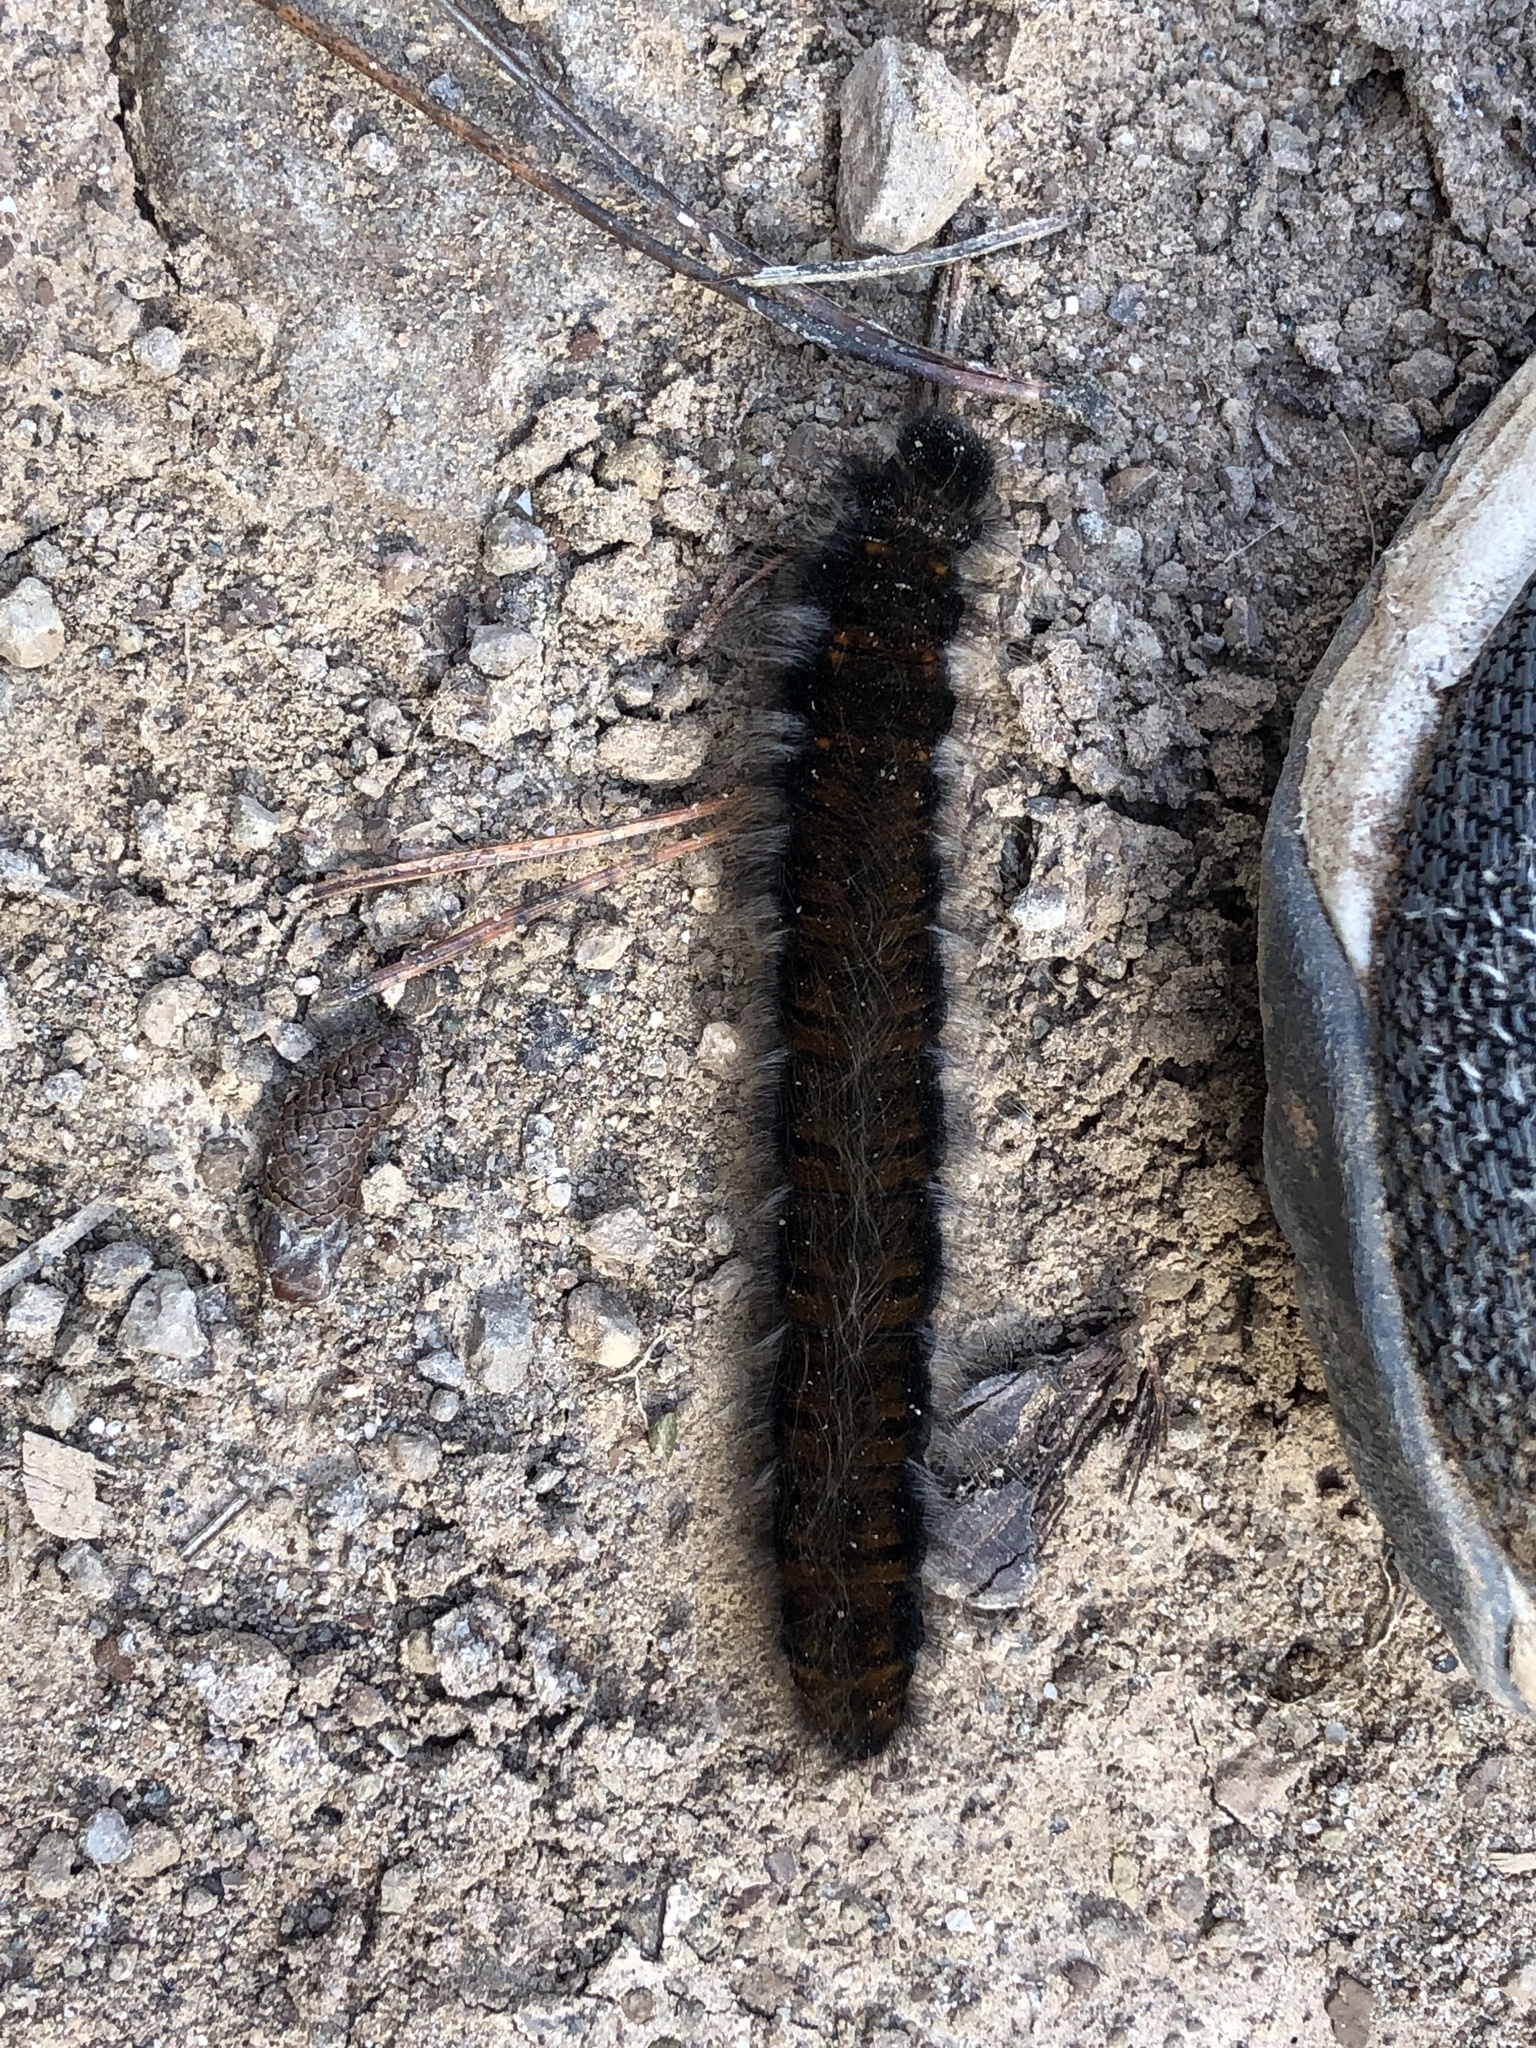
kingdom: Animalia
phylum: Arthropoda
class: Insecta
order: Lepidoptera
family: Lasiocampidae
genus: Macrothylacia
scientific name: Macrothylacia rubi
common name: Fox moth
